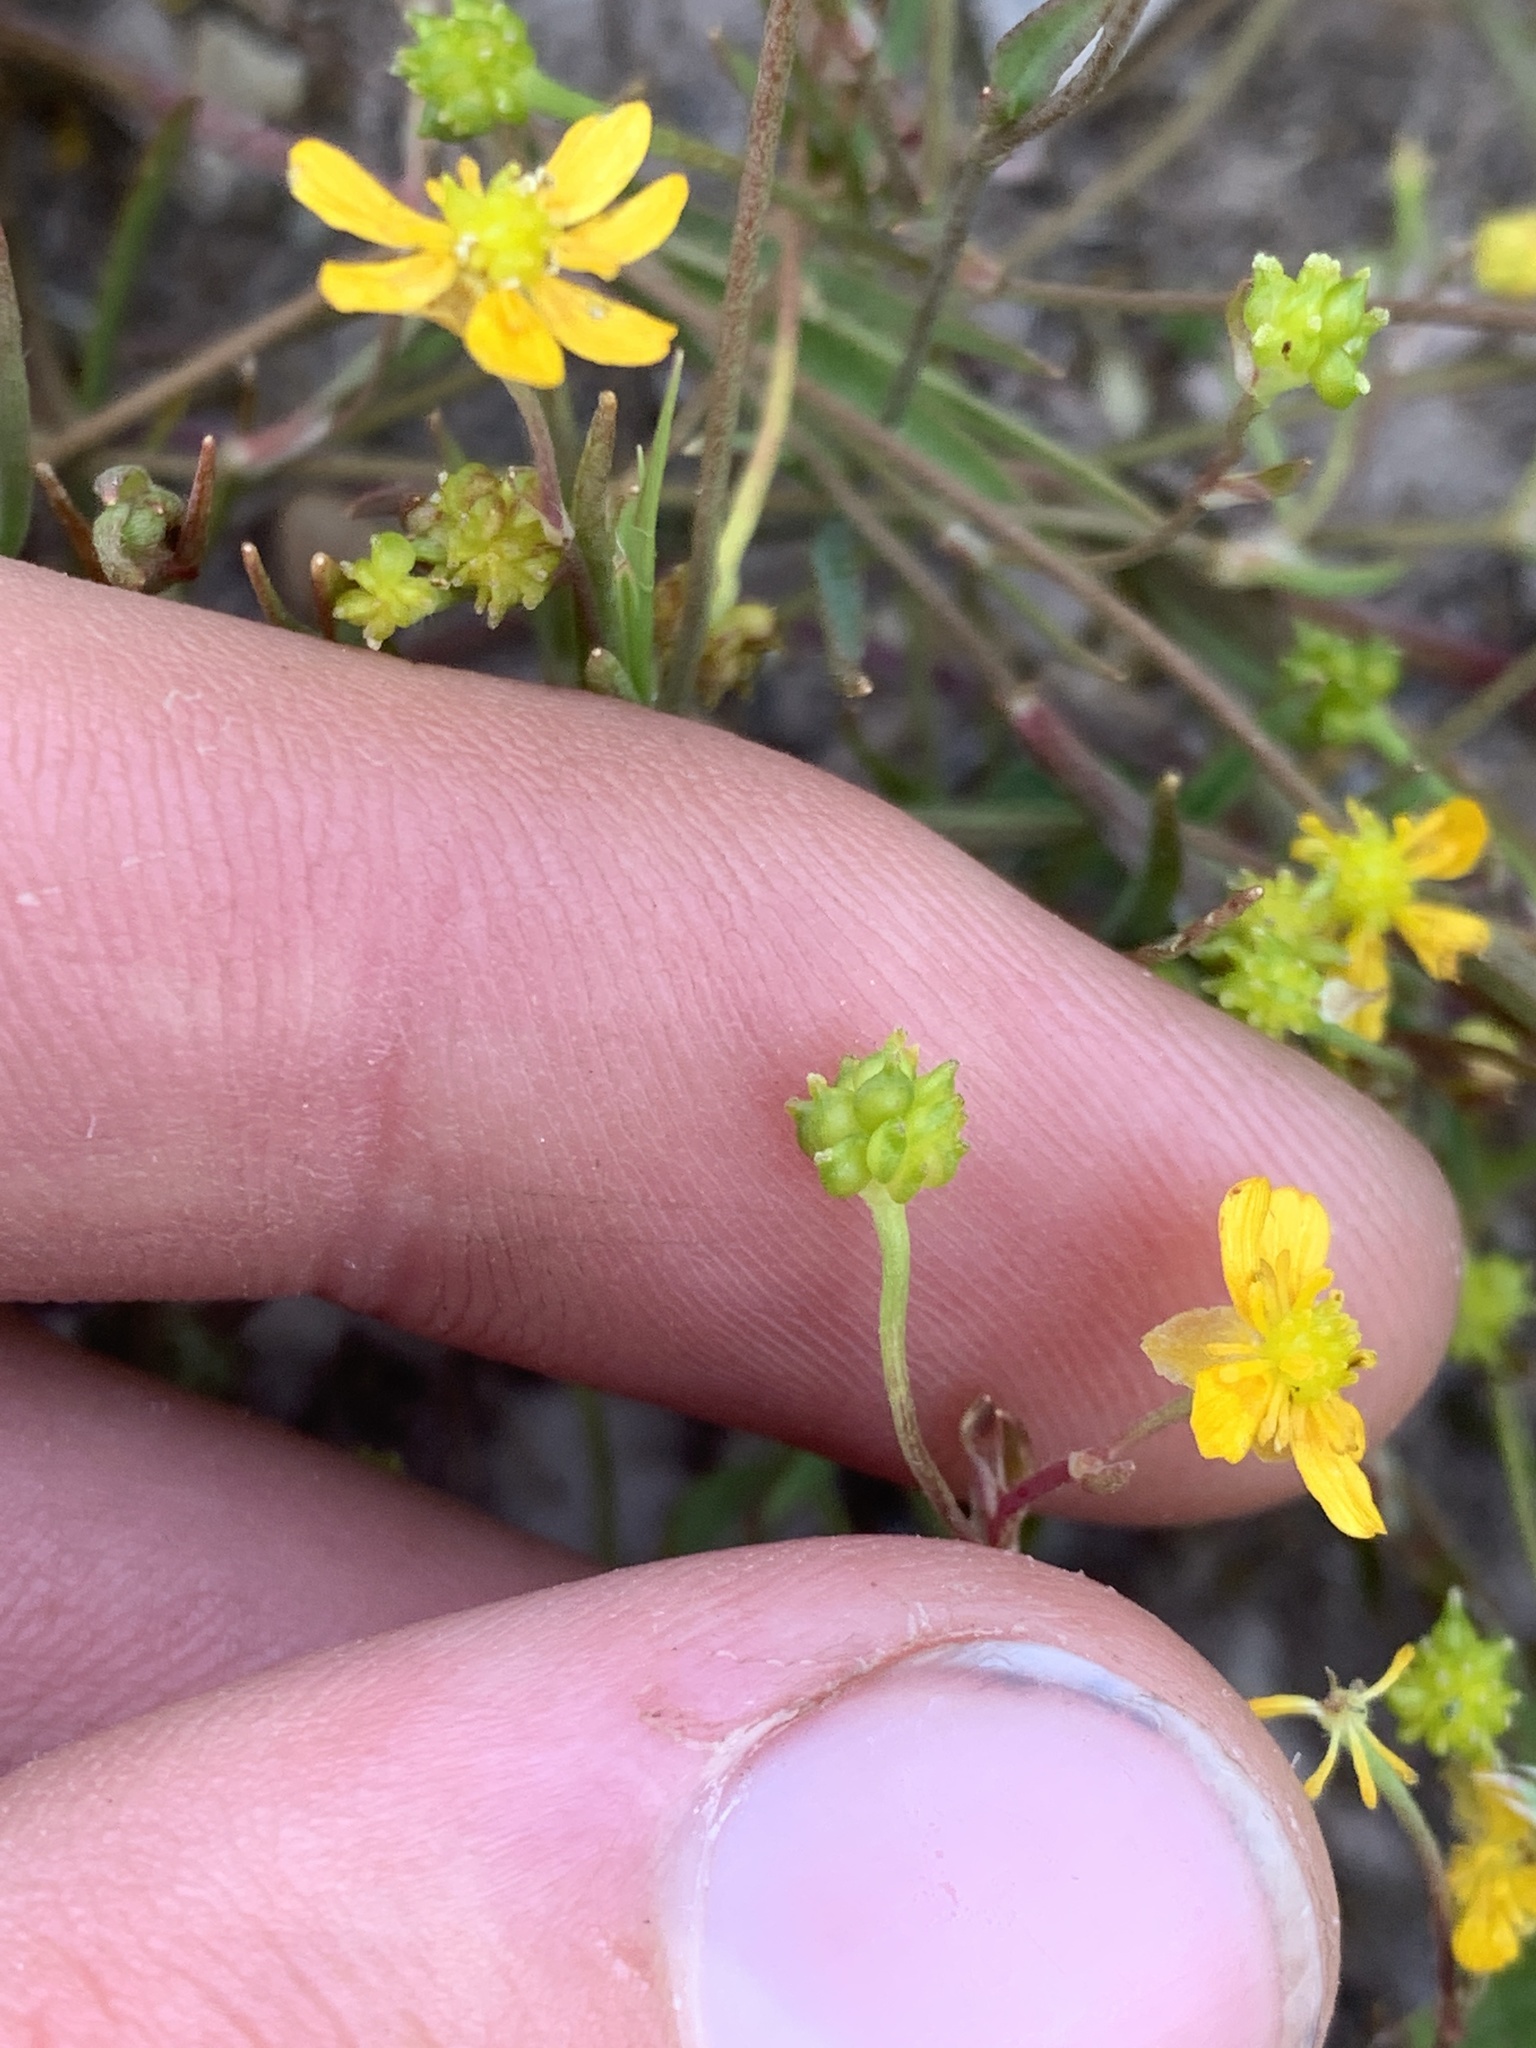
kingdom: Plantae
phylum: Tracheophyta
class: Magnoliopsida
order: Ranunculales
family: Ranunculaceae
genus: Ranunculus
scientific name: Ranunculus flammula
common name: Lesser spearwort
